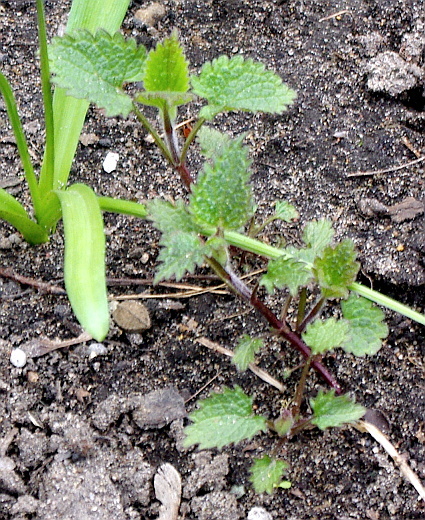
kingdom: Plantae
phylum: Tracheophyta
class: Magnoliopsida
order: Lamiales
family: Lamiaceae
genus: Lamium
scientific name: Lamium album
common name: White dead-nettle
